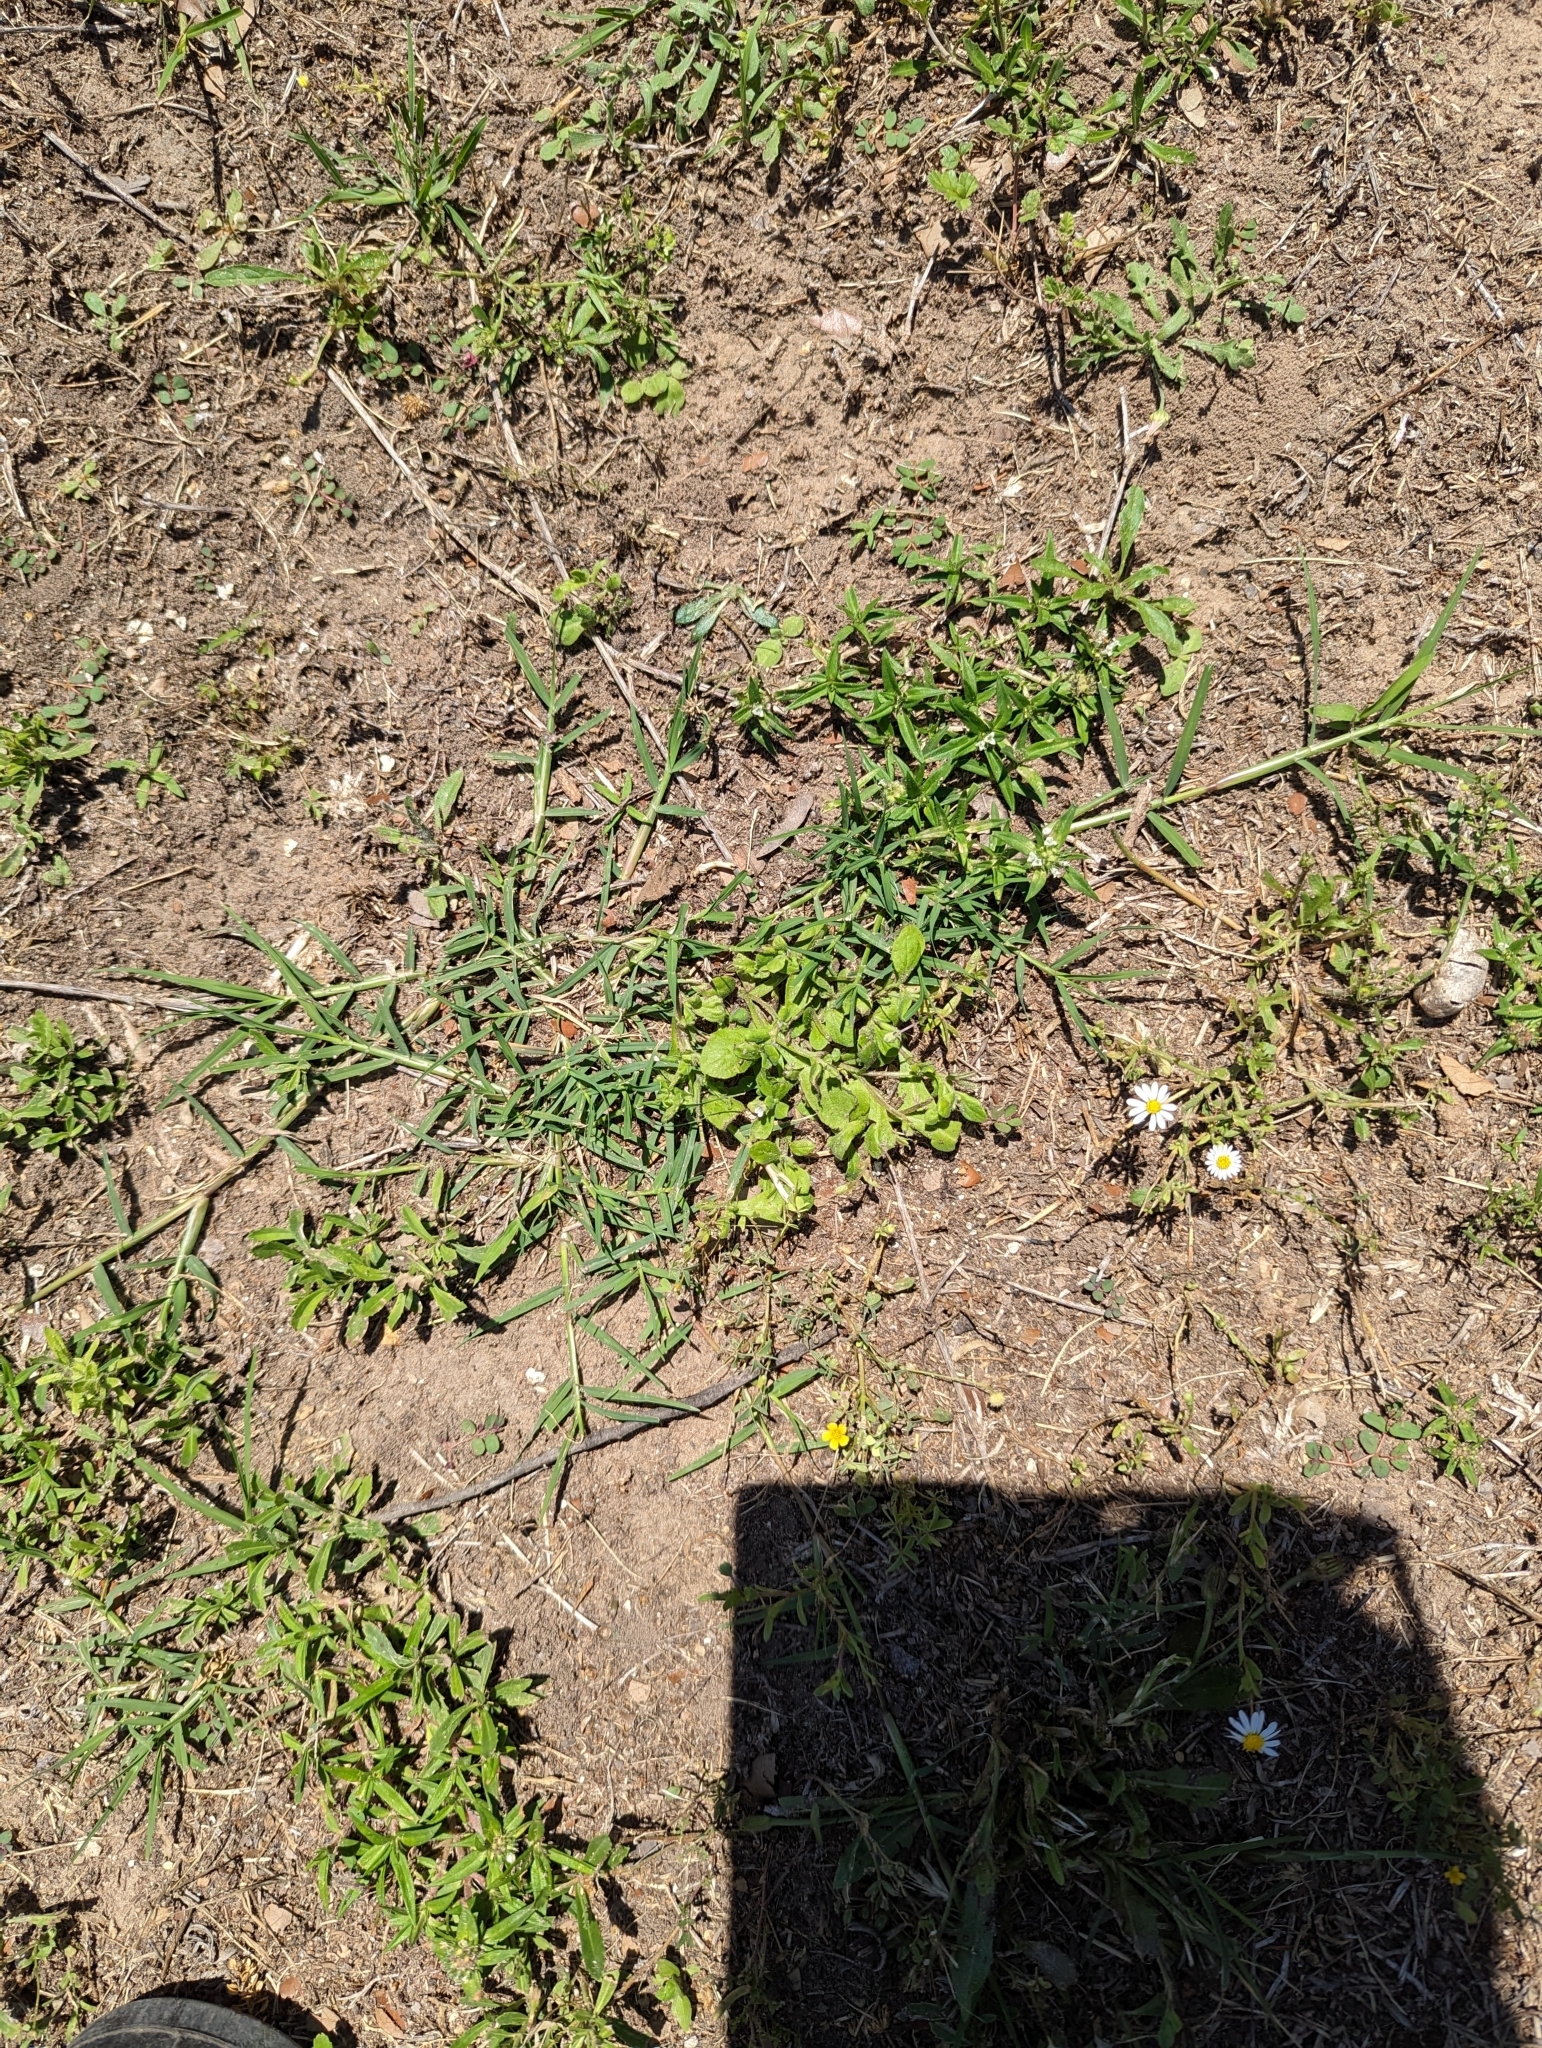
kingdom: Plantae
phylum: Tracheophyta
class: Magnoliopsida
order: Boraginales
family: Namaceae
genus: Nama
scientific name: Nama jamaicensis
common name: Jamaicanweed
